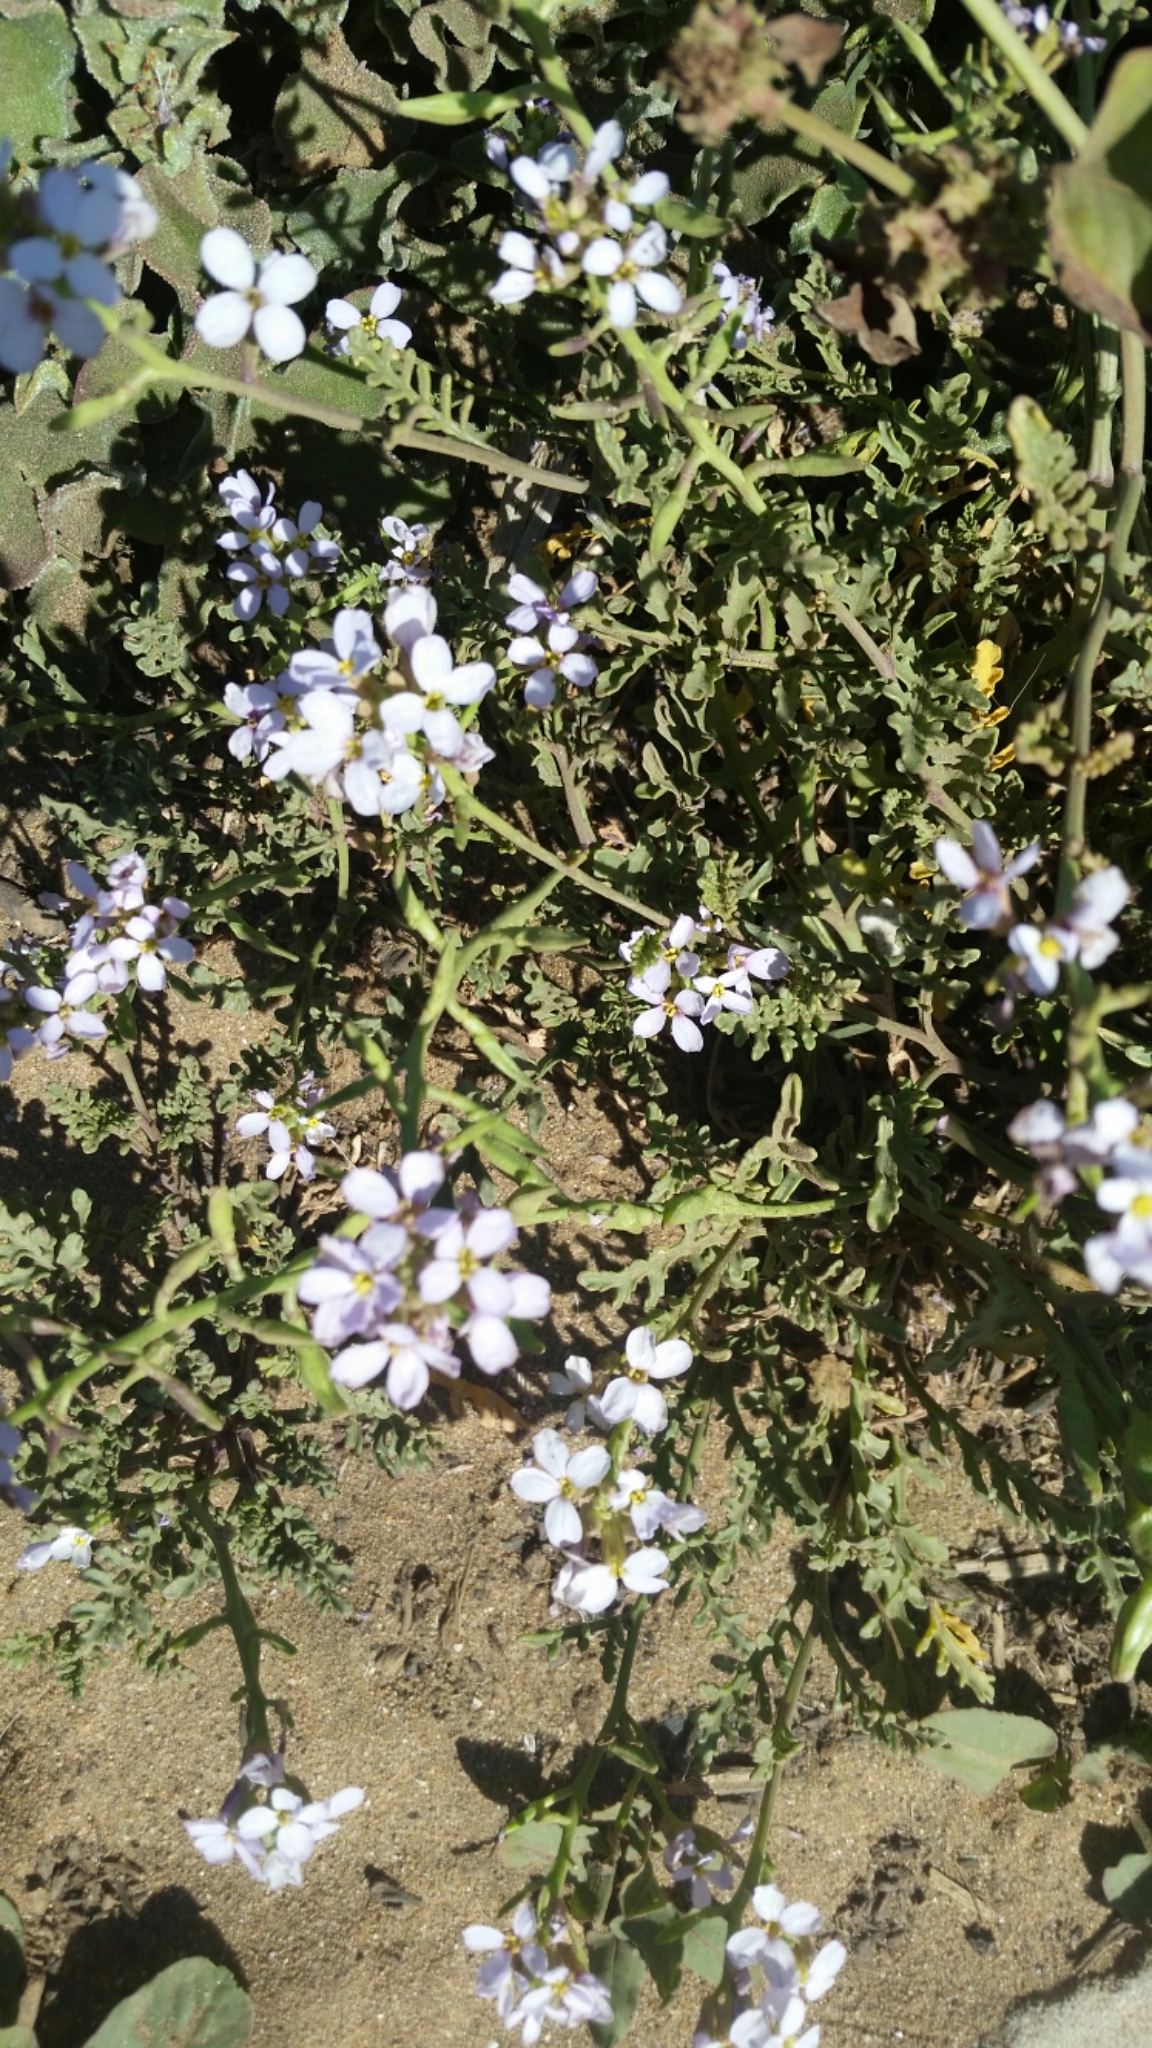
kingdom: Plantae
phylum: Tracheophyta
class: Magnoliopsida
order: Brassicales
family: Brassicaceae
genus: Cakile
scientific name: Cakile maritima
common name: Sea rocket
